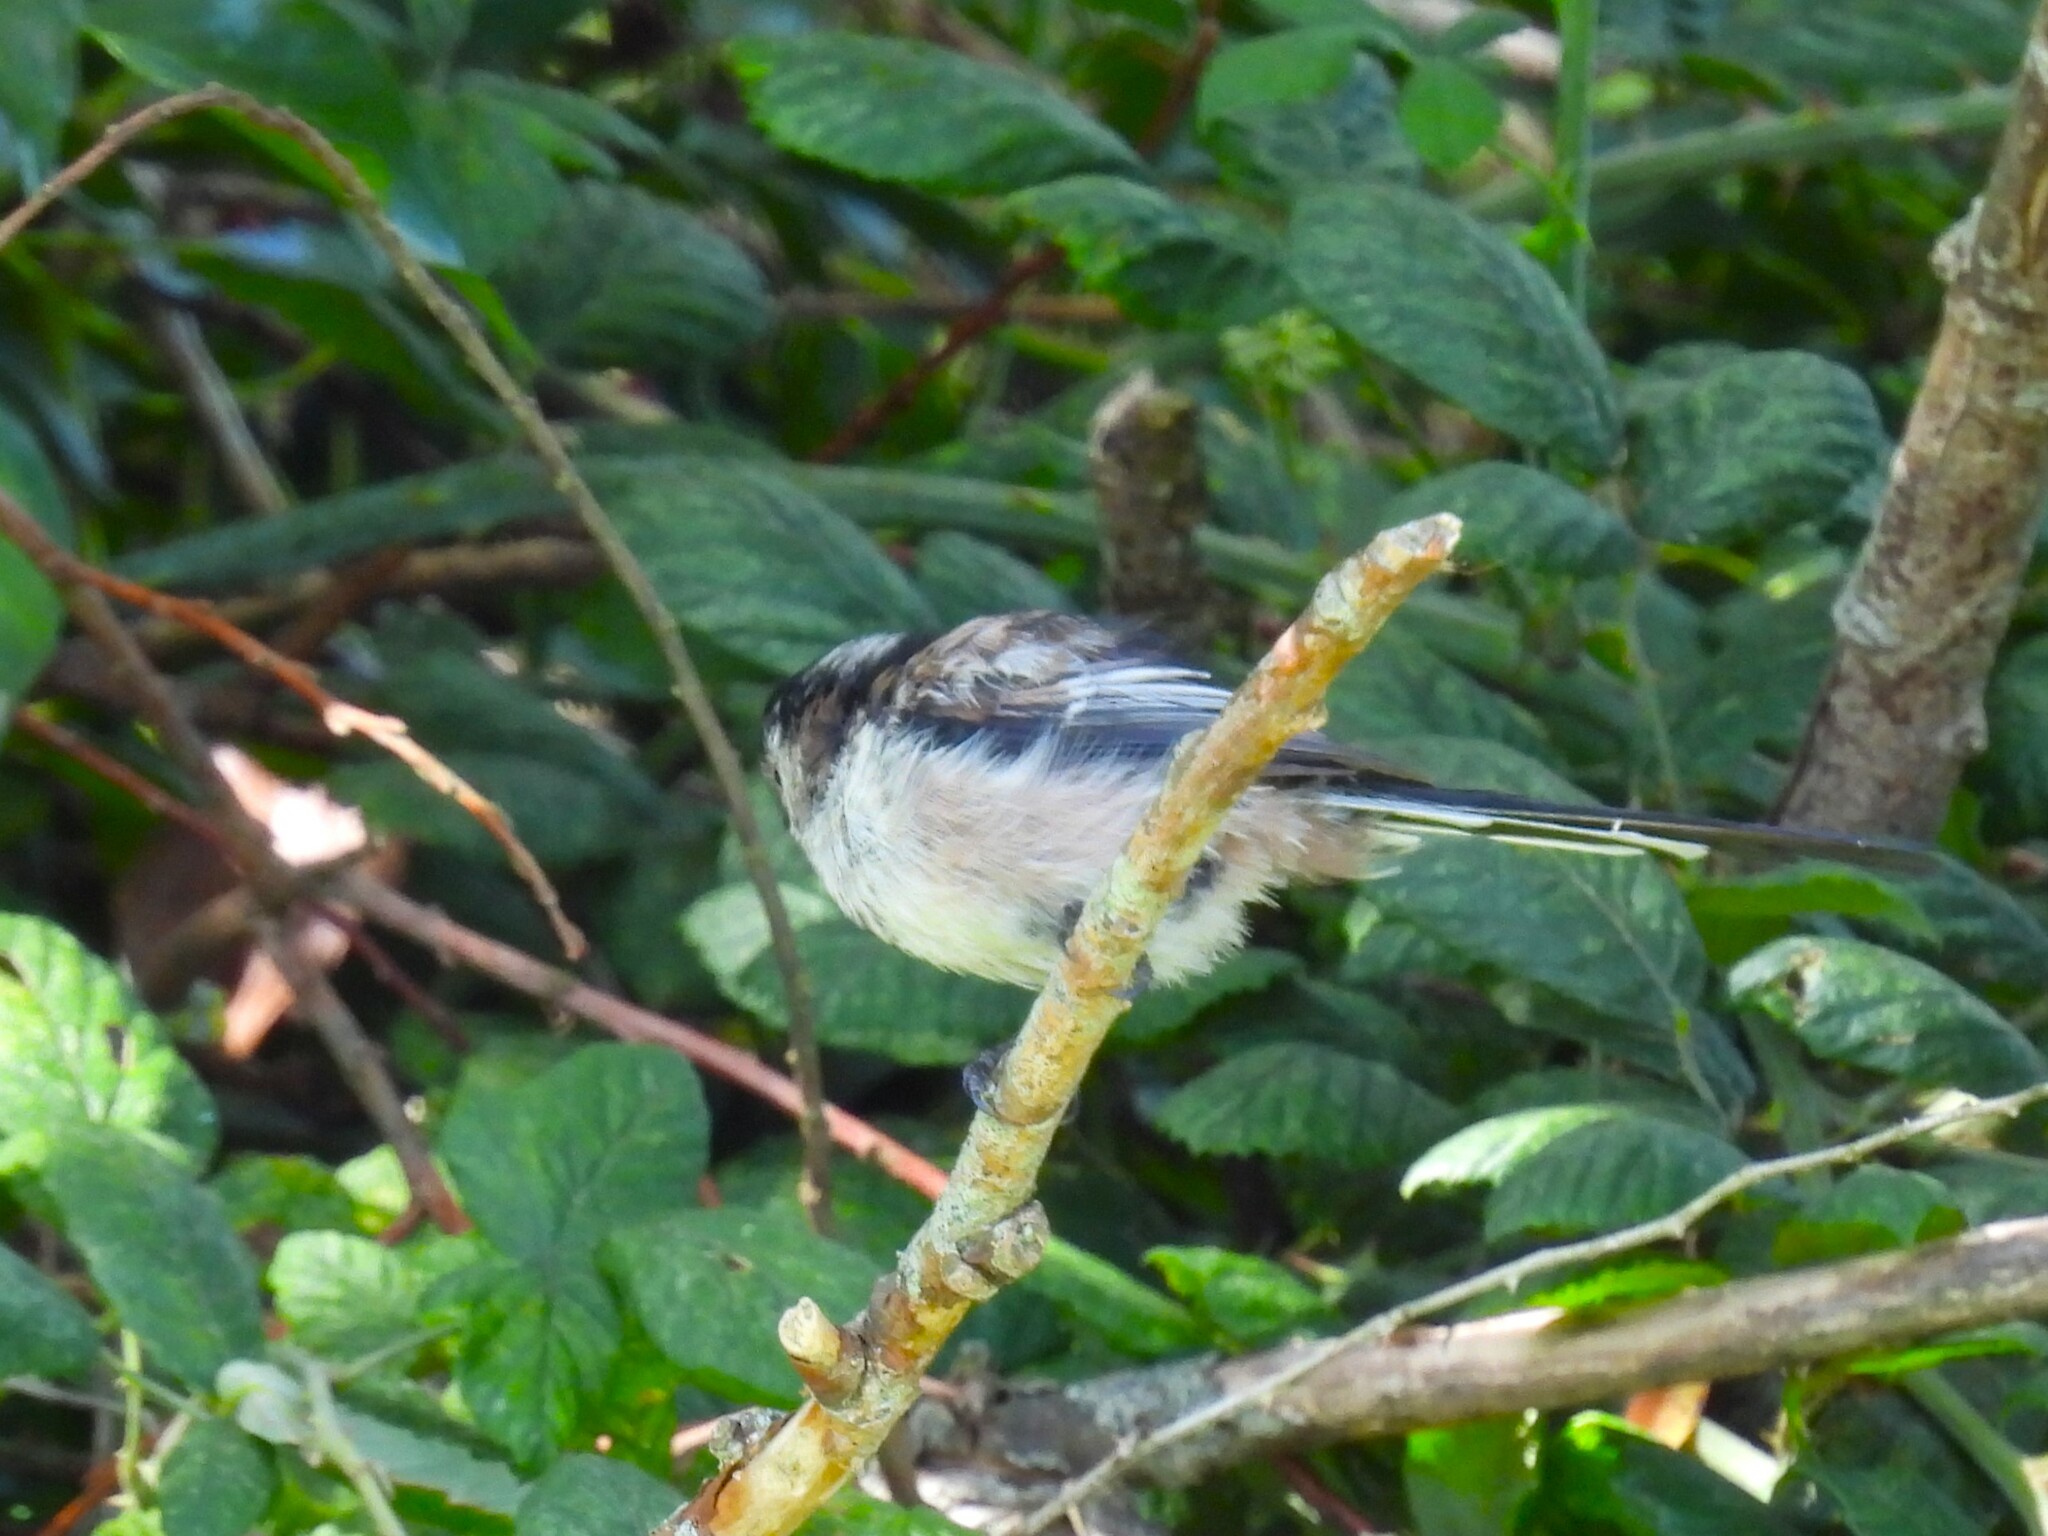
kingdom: Animalia
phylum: Chordata
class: Aves
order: Passeriformes
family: Aegithalidae
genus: Aegithalos
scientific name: Aegithalos caudatus
